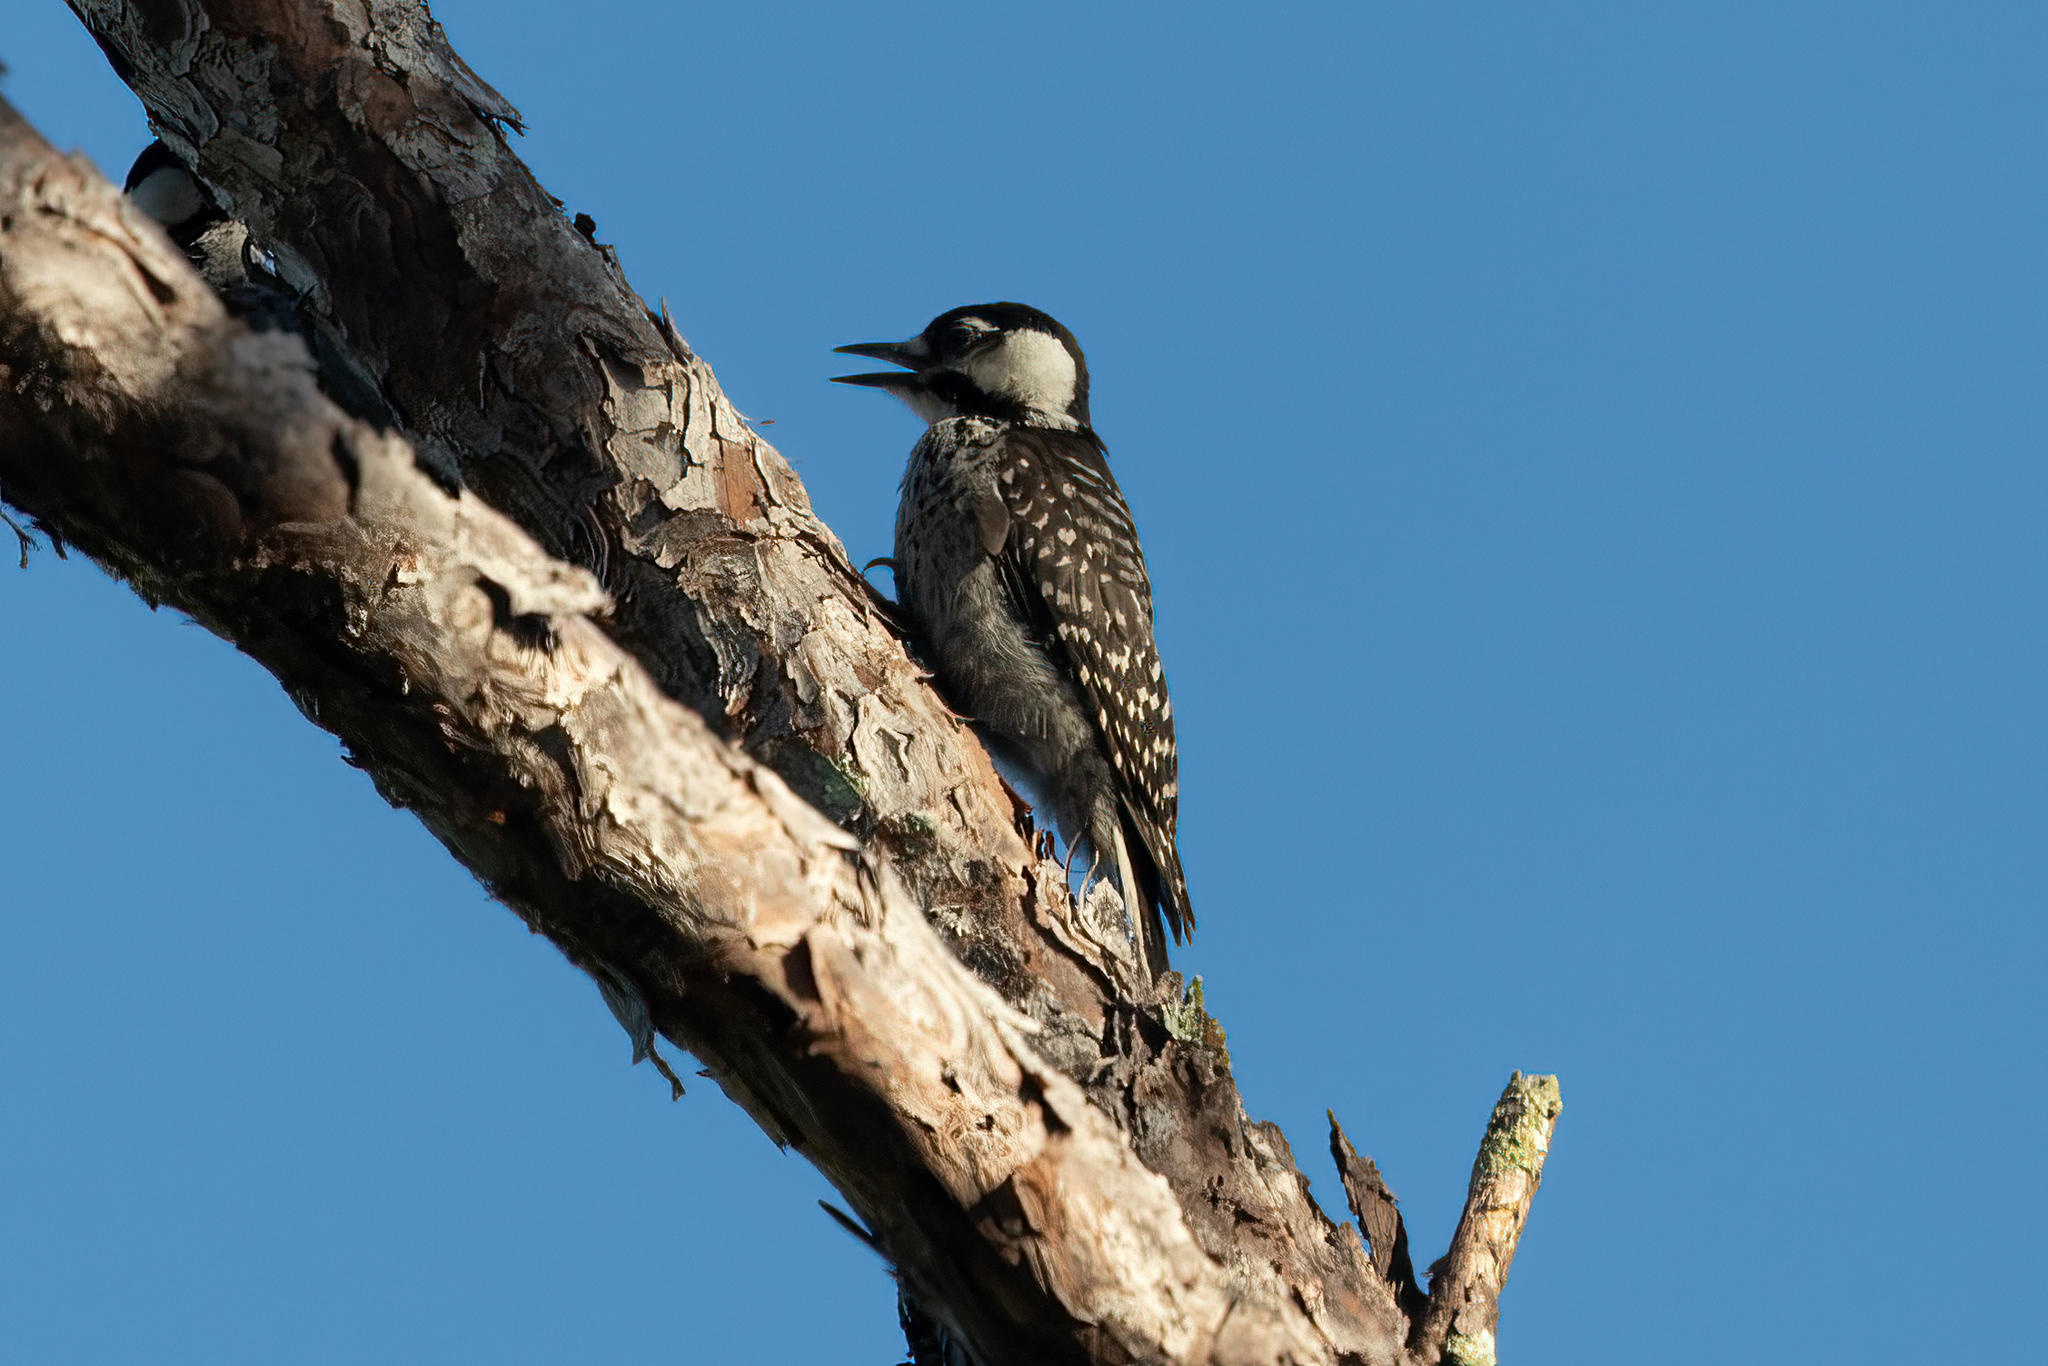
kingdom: Animalia
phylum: Chordata
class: Aves
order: Piciformes
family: Picidae
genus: Leuconotopicus
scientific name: Leuconotopicus borealis
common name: Red-cockaded woodpecker
